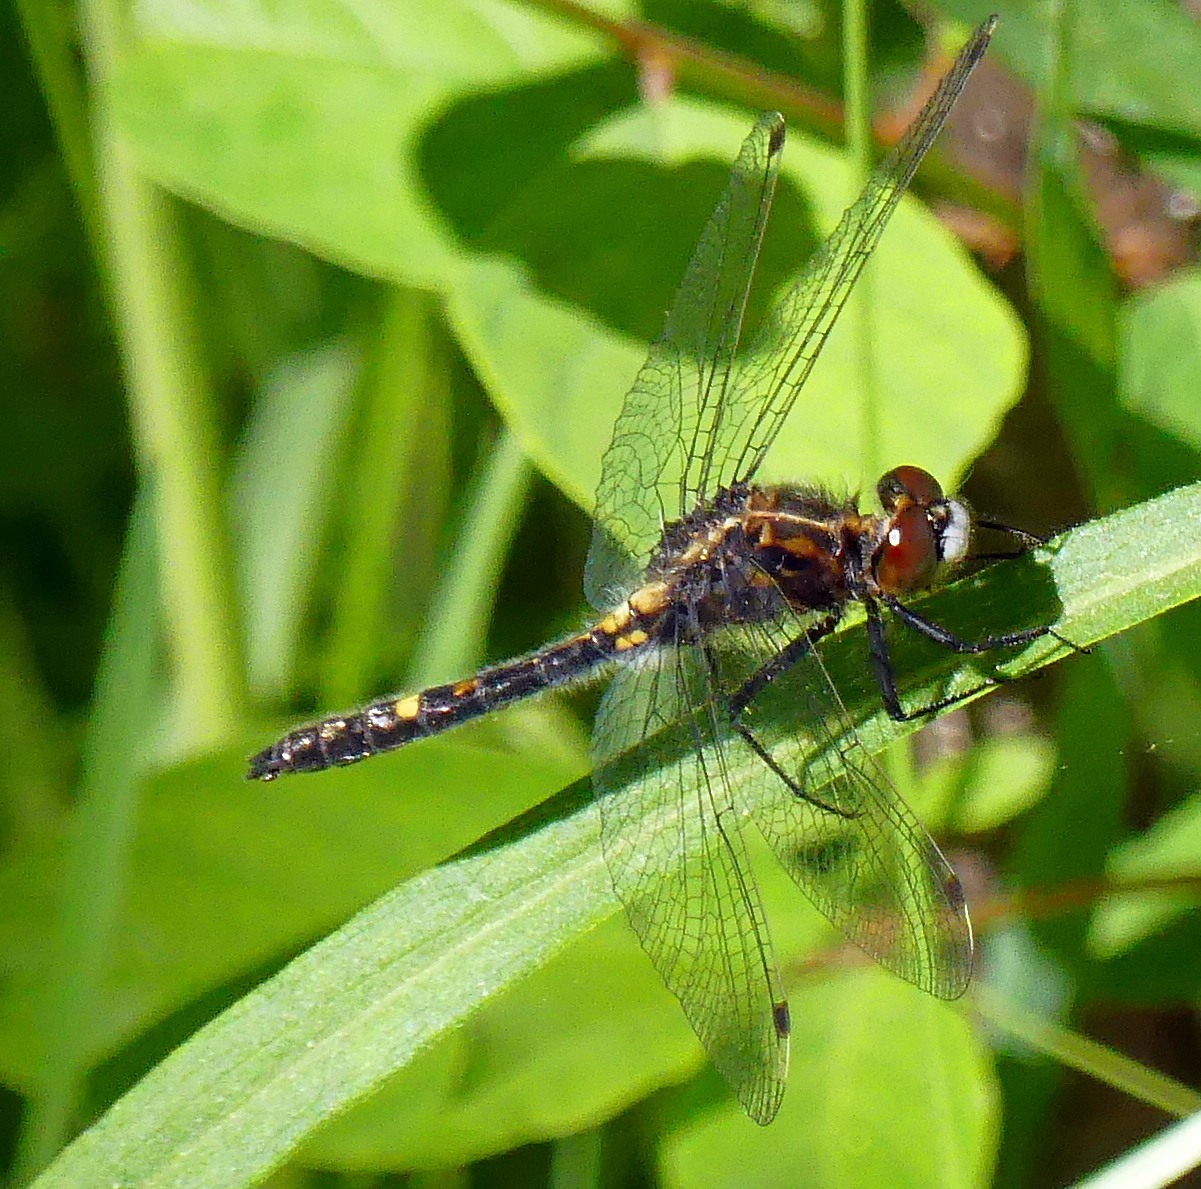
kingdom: Animalia
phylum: Arthropoda
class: Insecta
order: Odonata
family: Libellulidae
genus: Leucorrhinia
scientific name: Leucorrhinia intacta
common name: Dot-tailed whiteface
